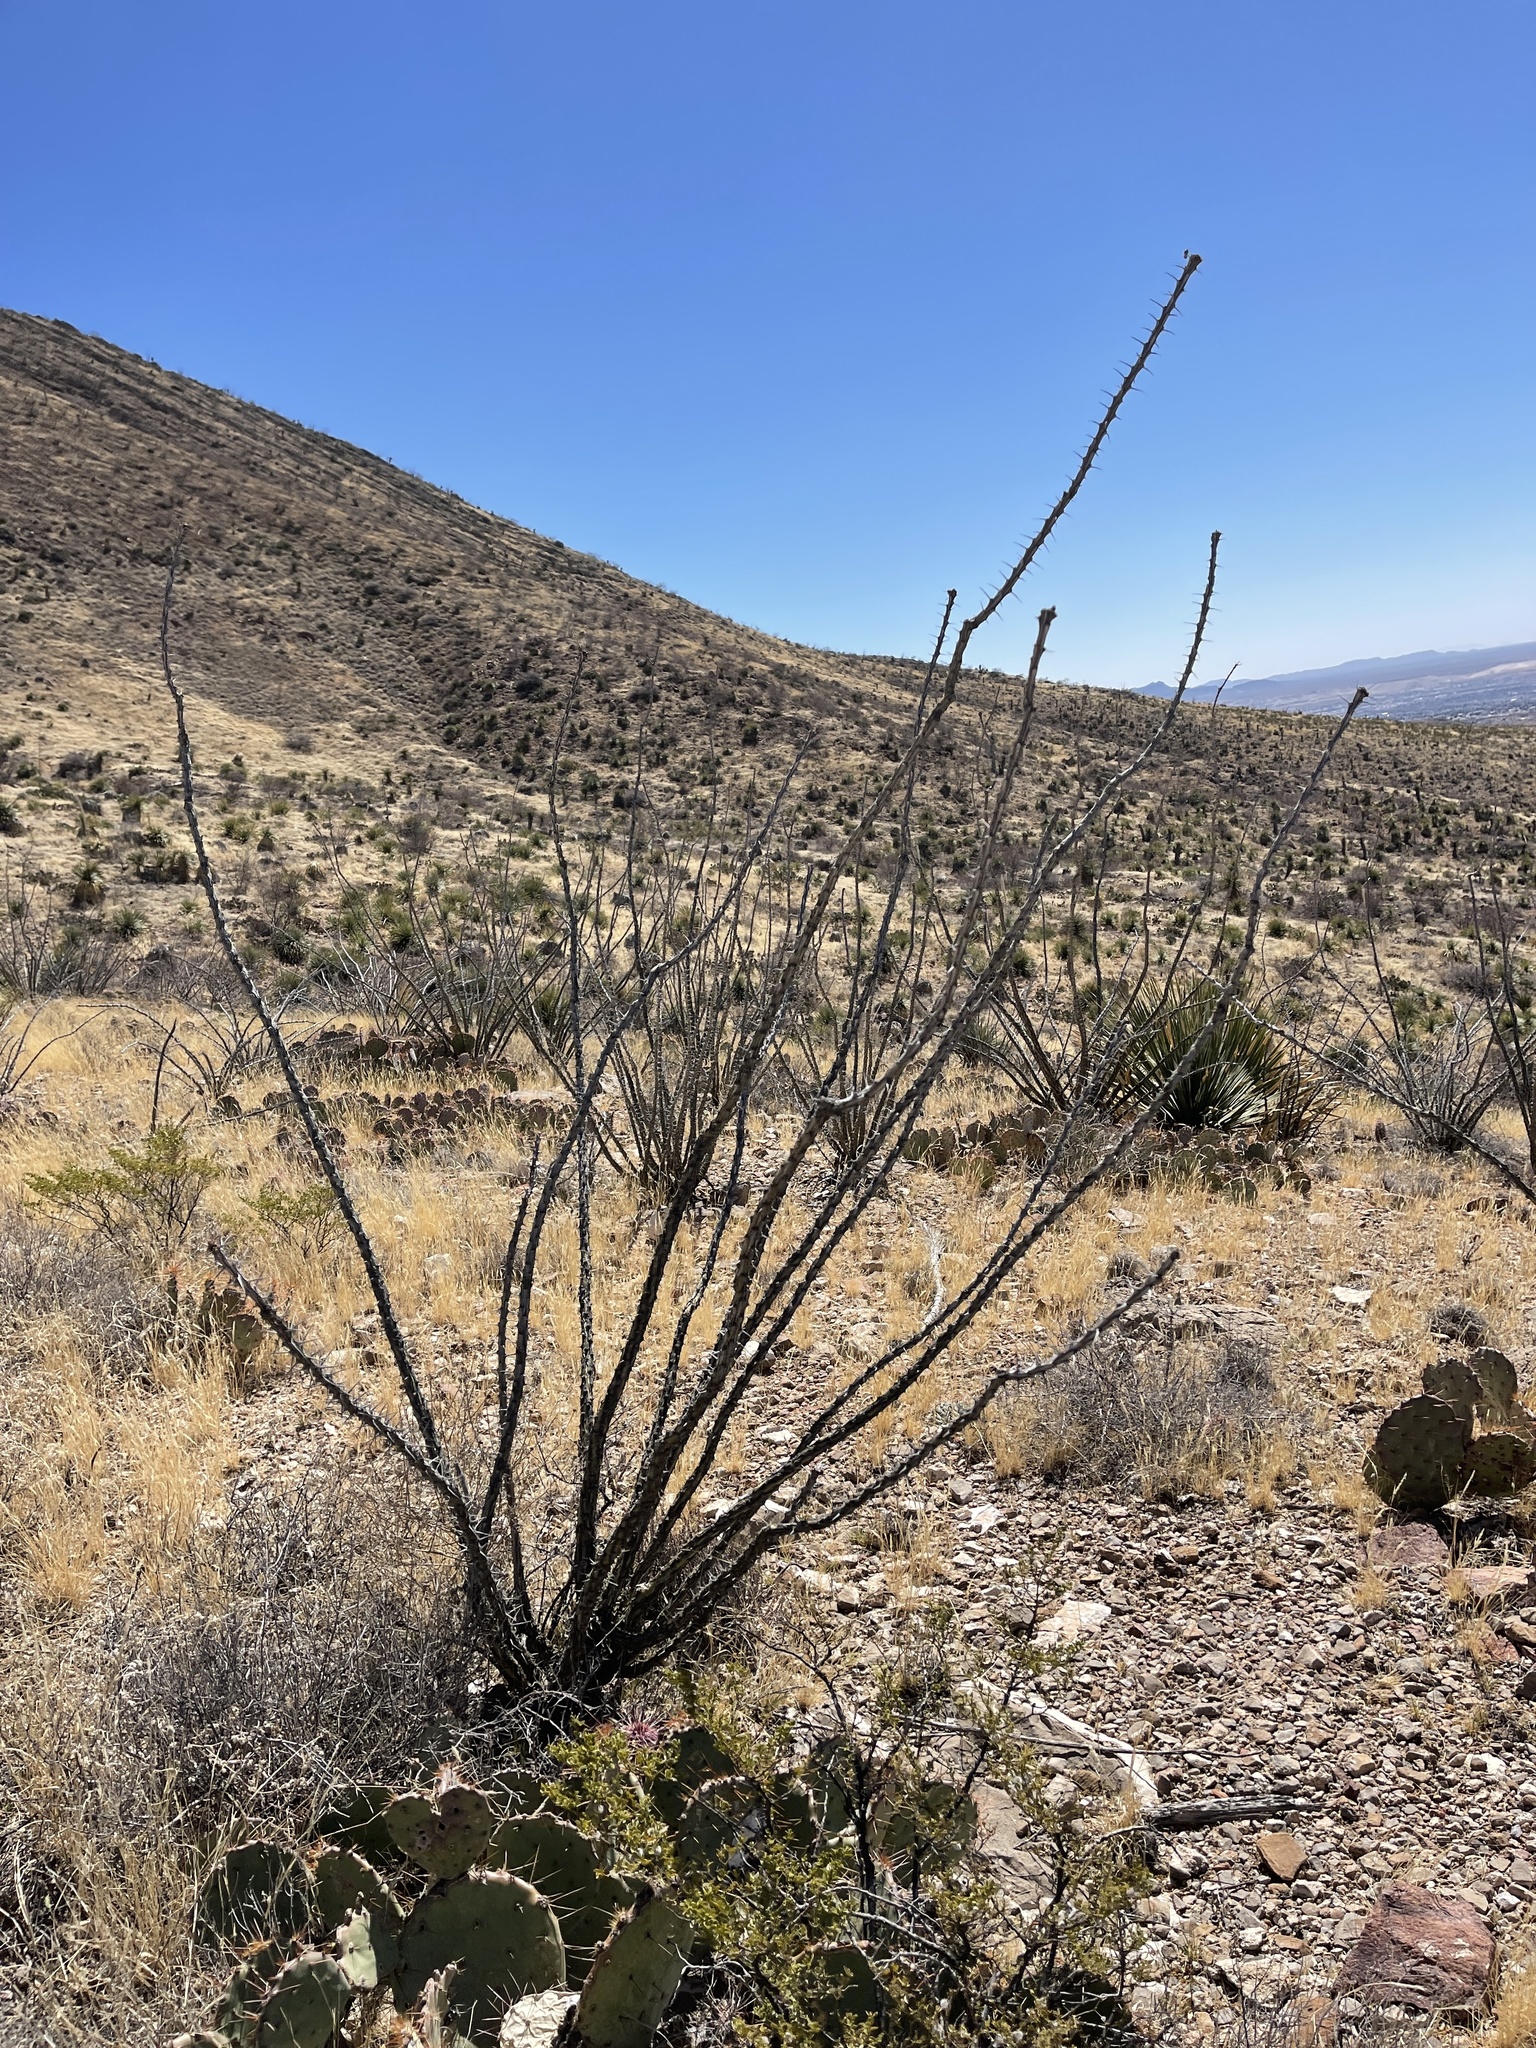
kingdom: Plantae
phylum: Tracheophyta
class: Magnoliopsida
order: Ericales
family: Fouquieriaceae
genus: Fouquieria
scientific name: Fouquieria splendens
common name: Vine-cactus
